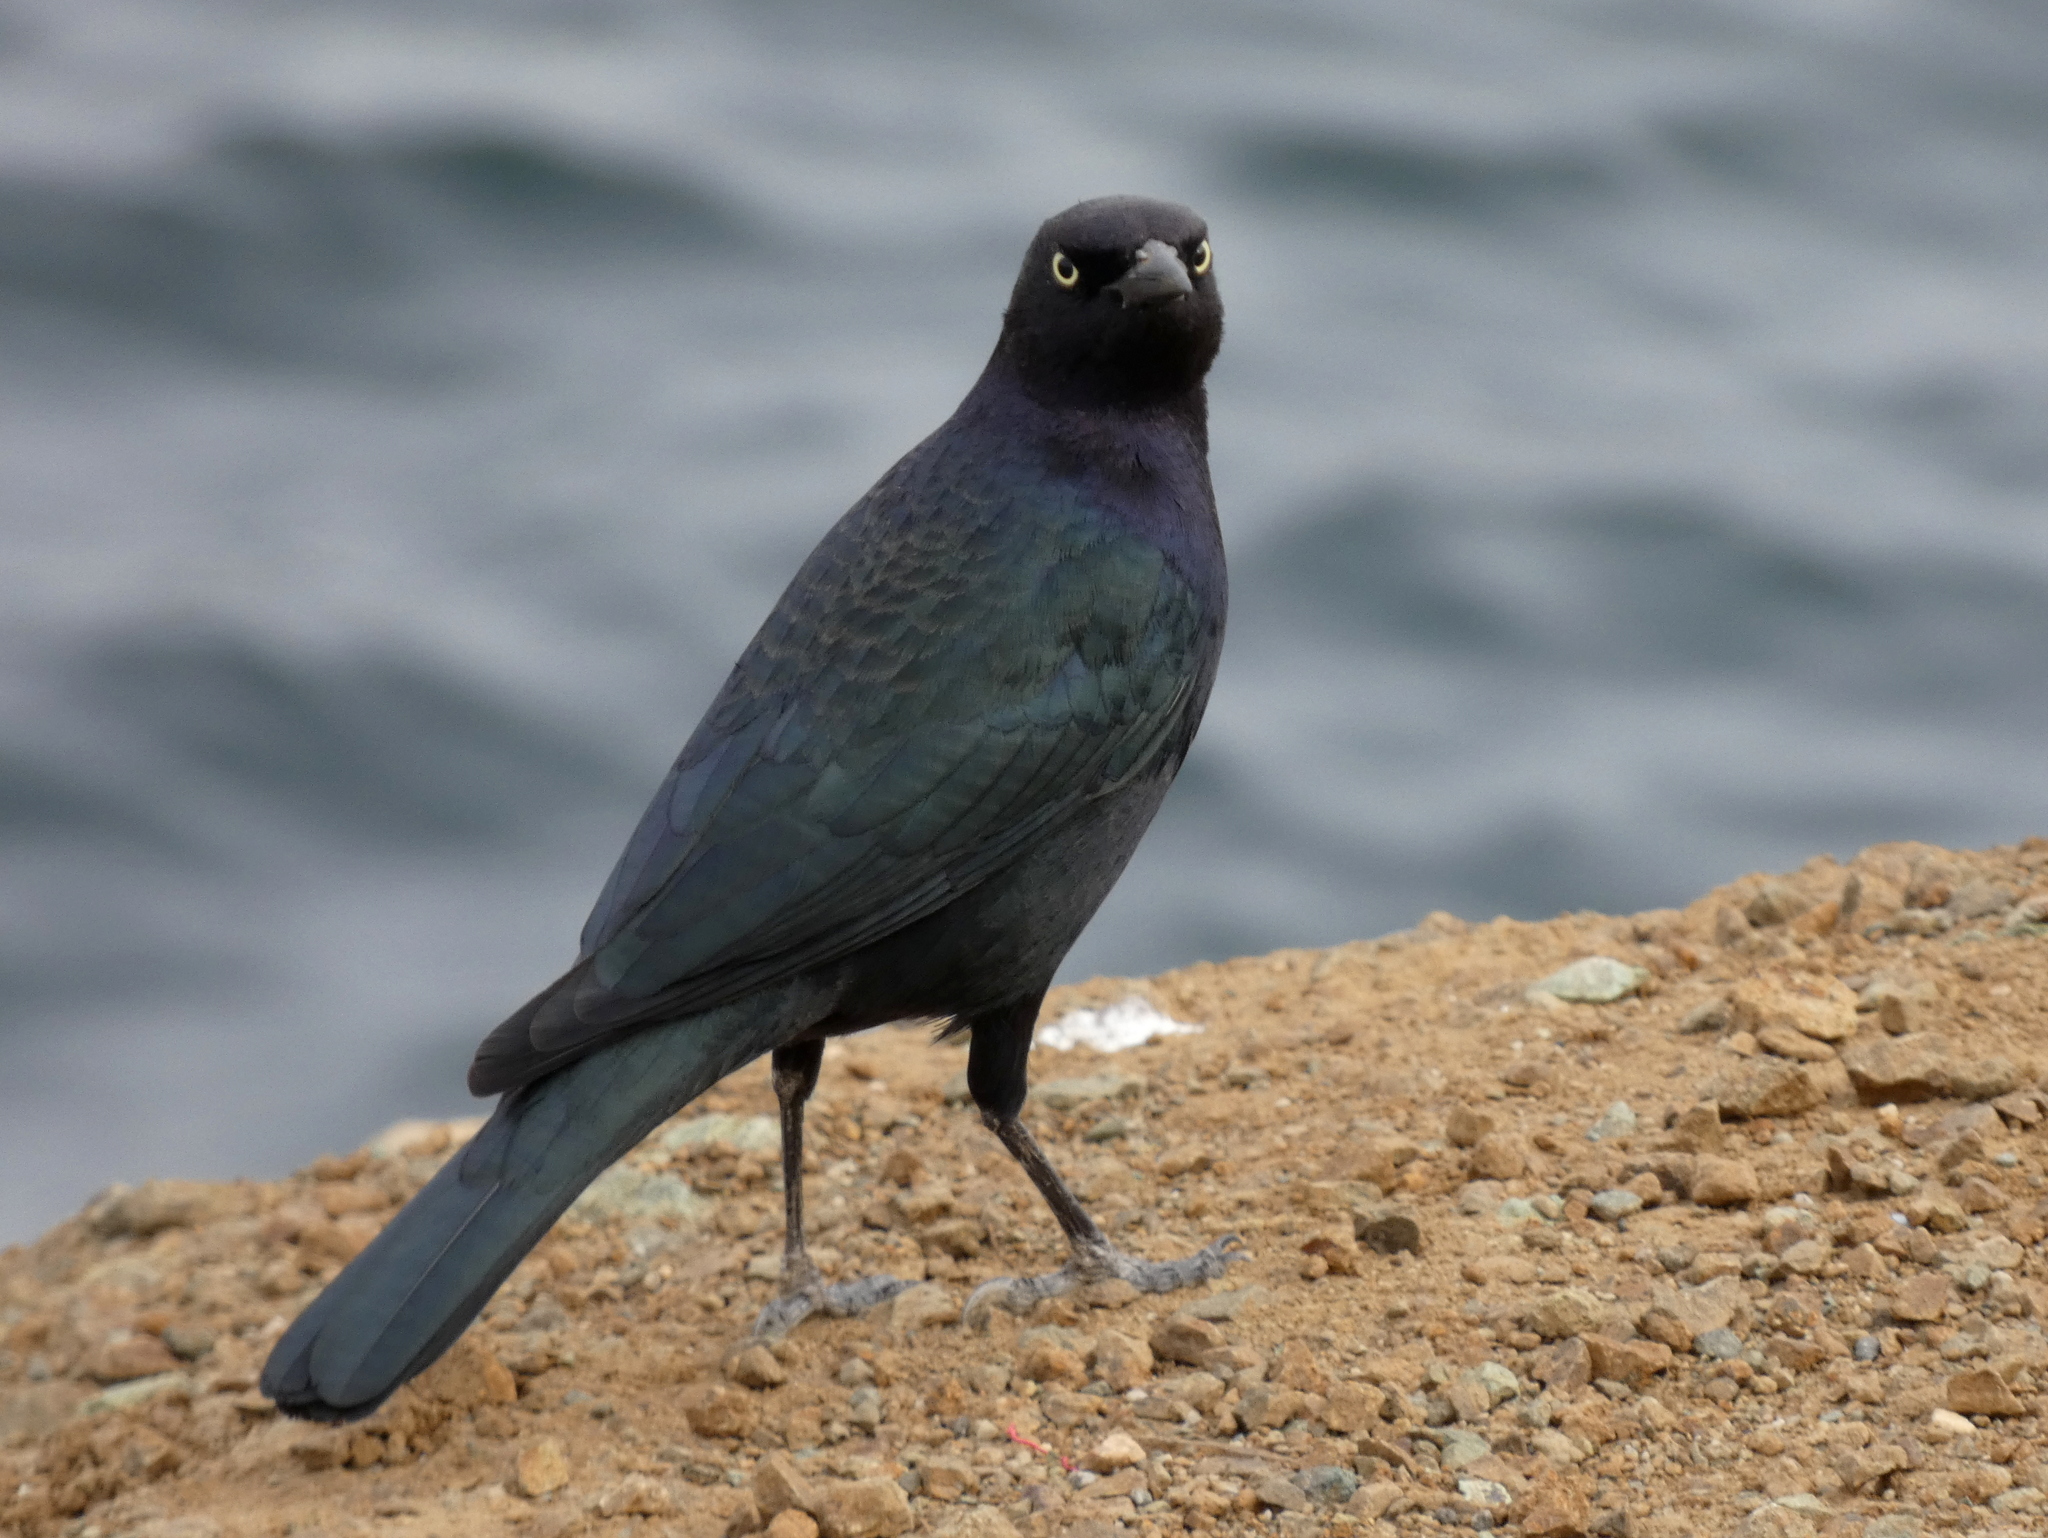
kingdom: Animalia
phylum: Chordata
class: Aves
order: Passeriformes
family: Icteridae
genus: Euphagus
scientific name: Euphagus cyanocephalus
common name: Brewer's blackbird
